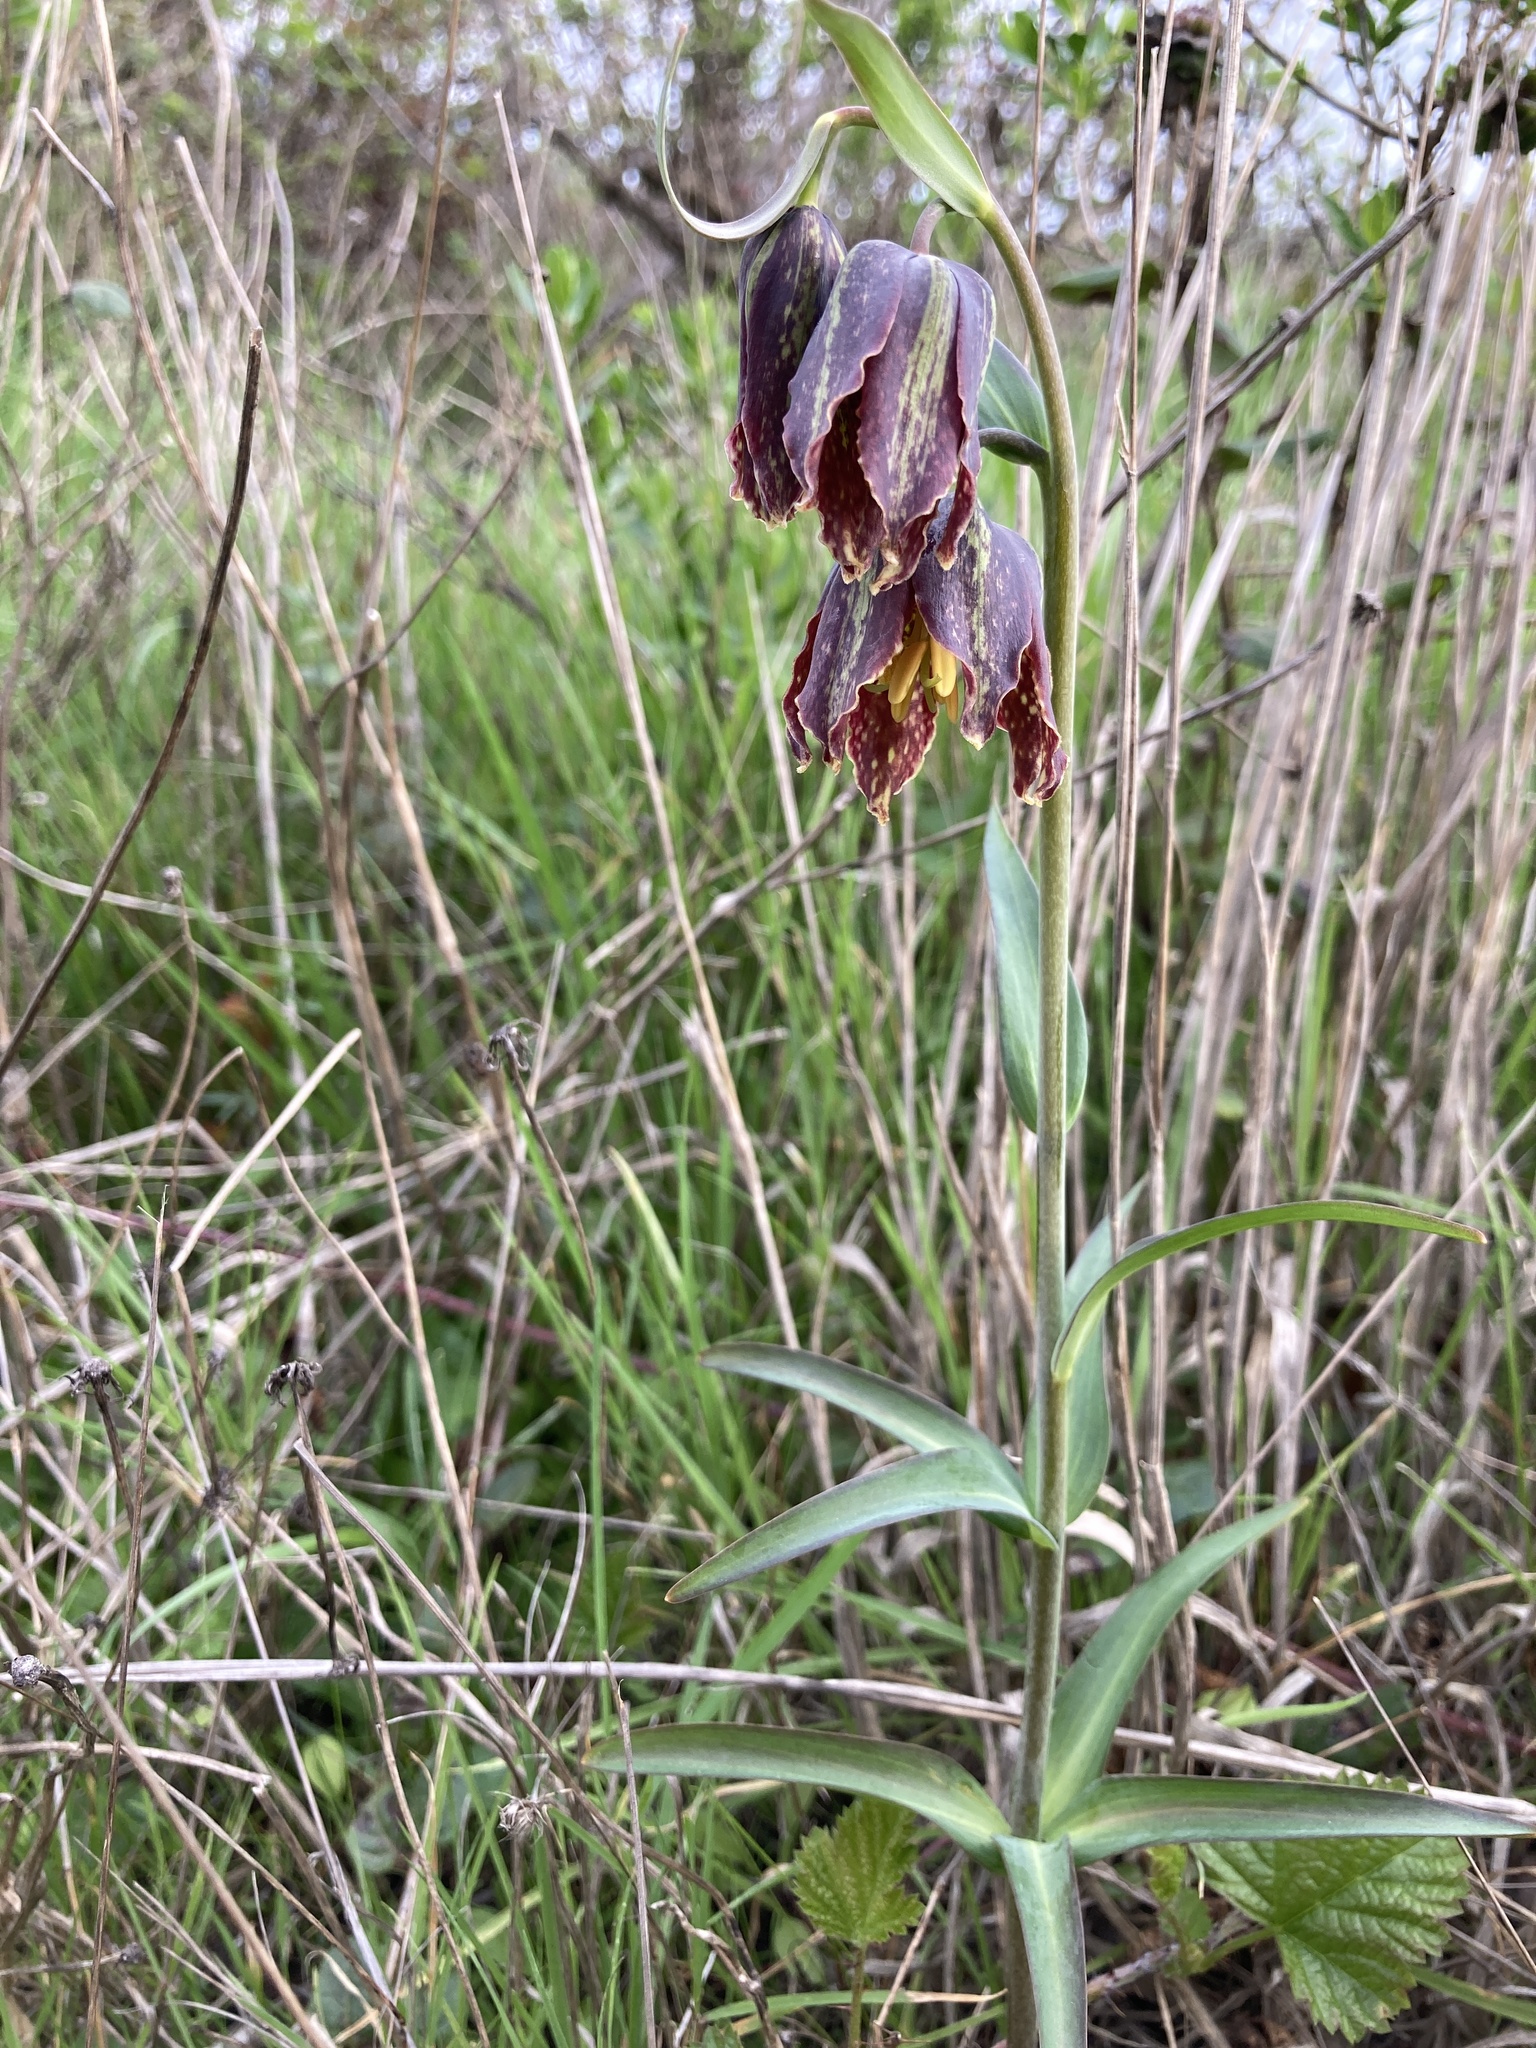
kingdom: Plantae
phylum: Tracheophyta
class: Liliopsida
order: Liliales
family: Liliaceae
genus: Fritillaria
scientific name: Fritillaria affinis
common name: Ojai fritillary
